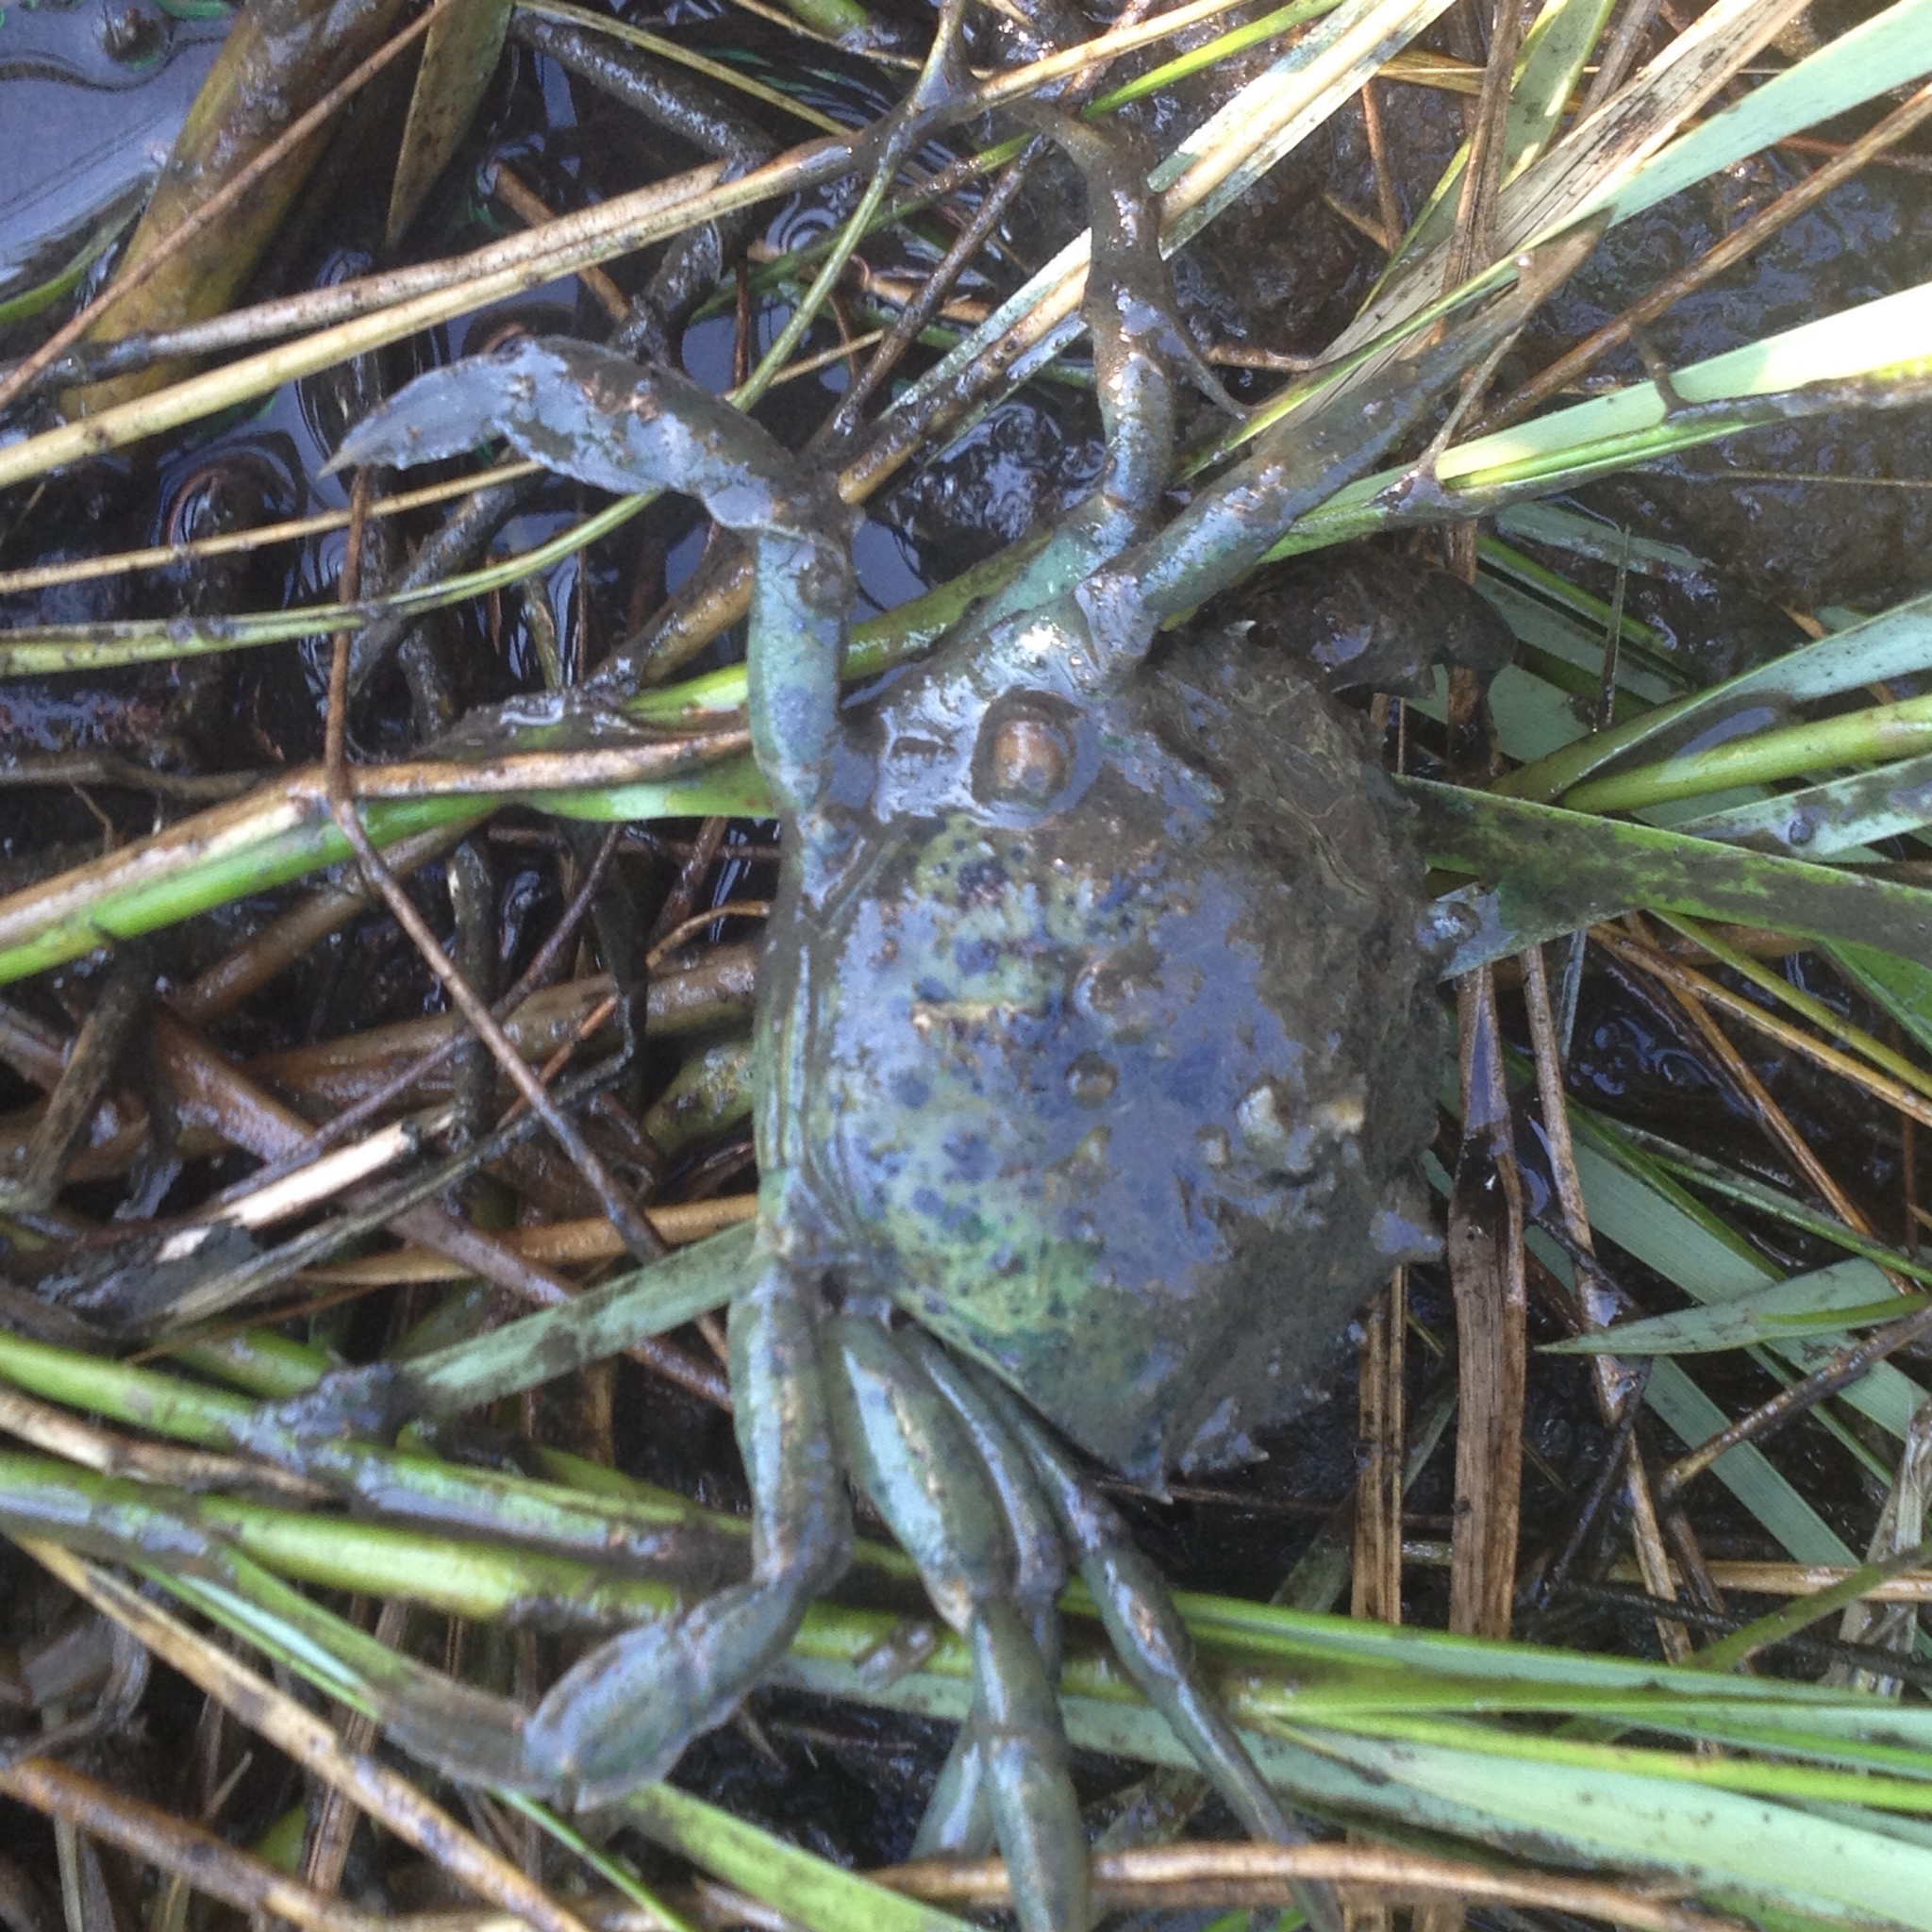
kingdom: Animalia
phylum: Arthropoda
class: Malacostraca
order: Decapoda
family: Carcinidae
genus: Carcinus
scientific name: Carcinus maenas
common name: European green crab
